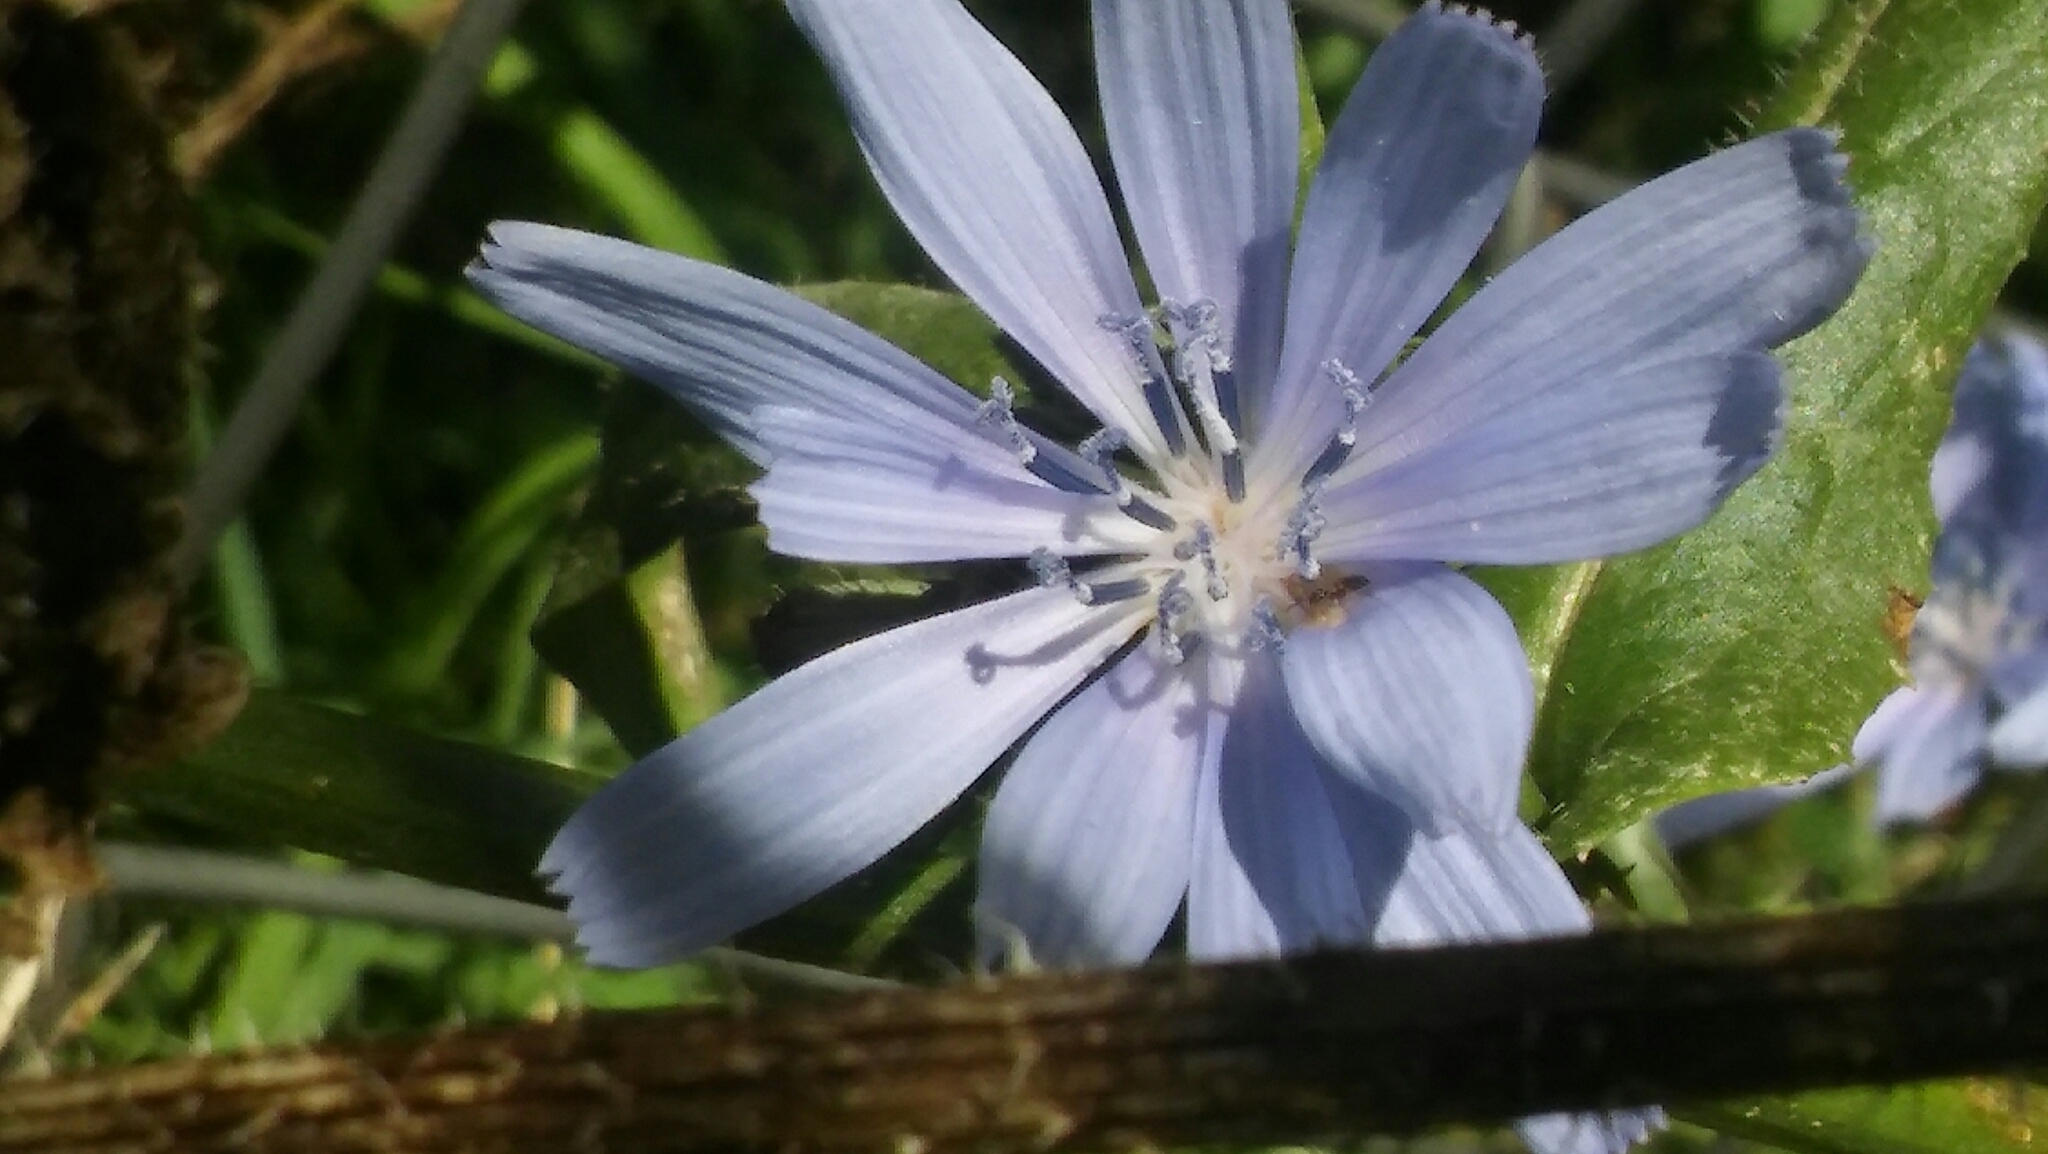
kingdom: Plantae
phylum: Tracheophyta
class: Magnoliopsida
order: Asterales
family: Asteraceae
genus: Cichorium
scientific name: Cichorium intybus
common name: Chicory
